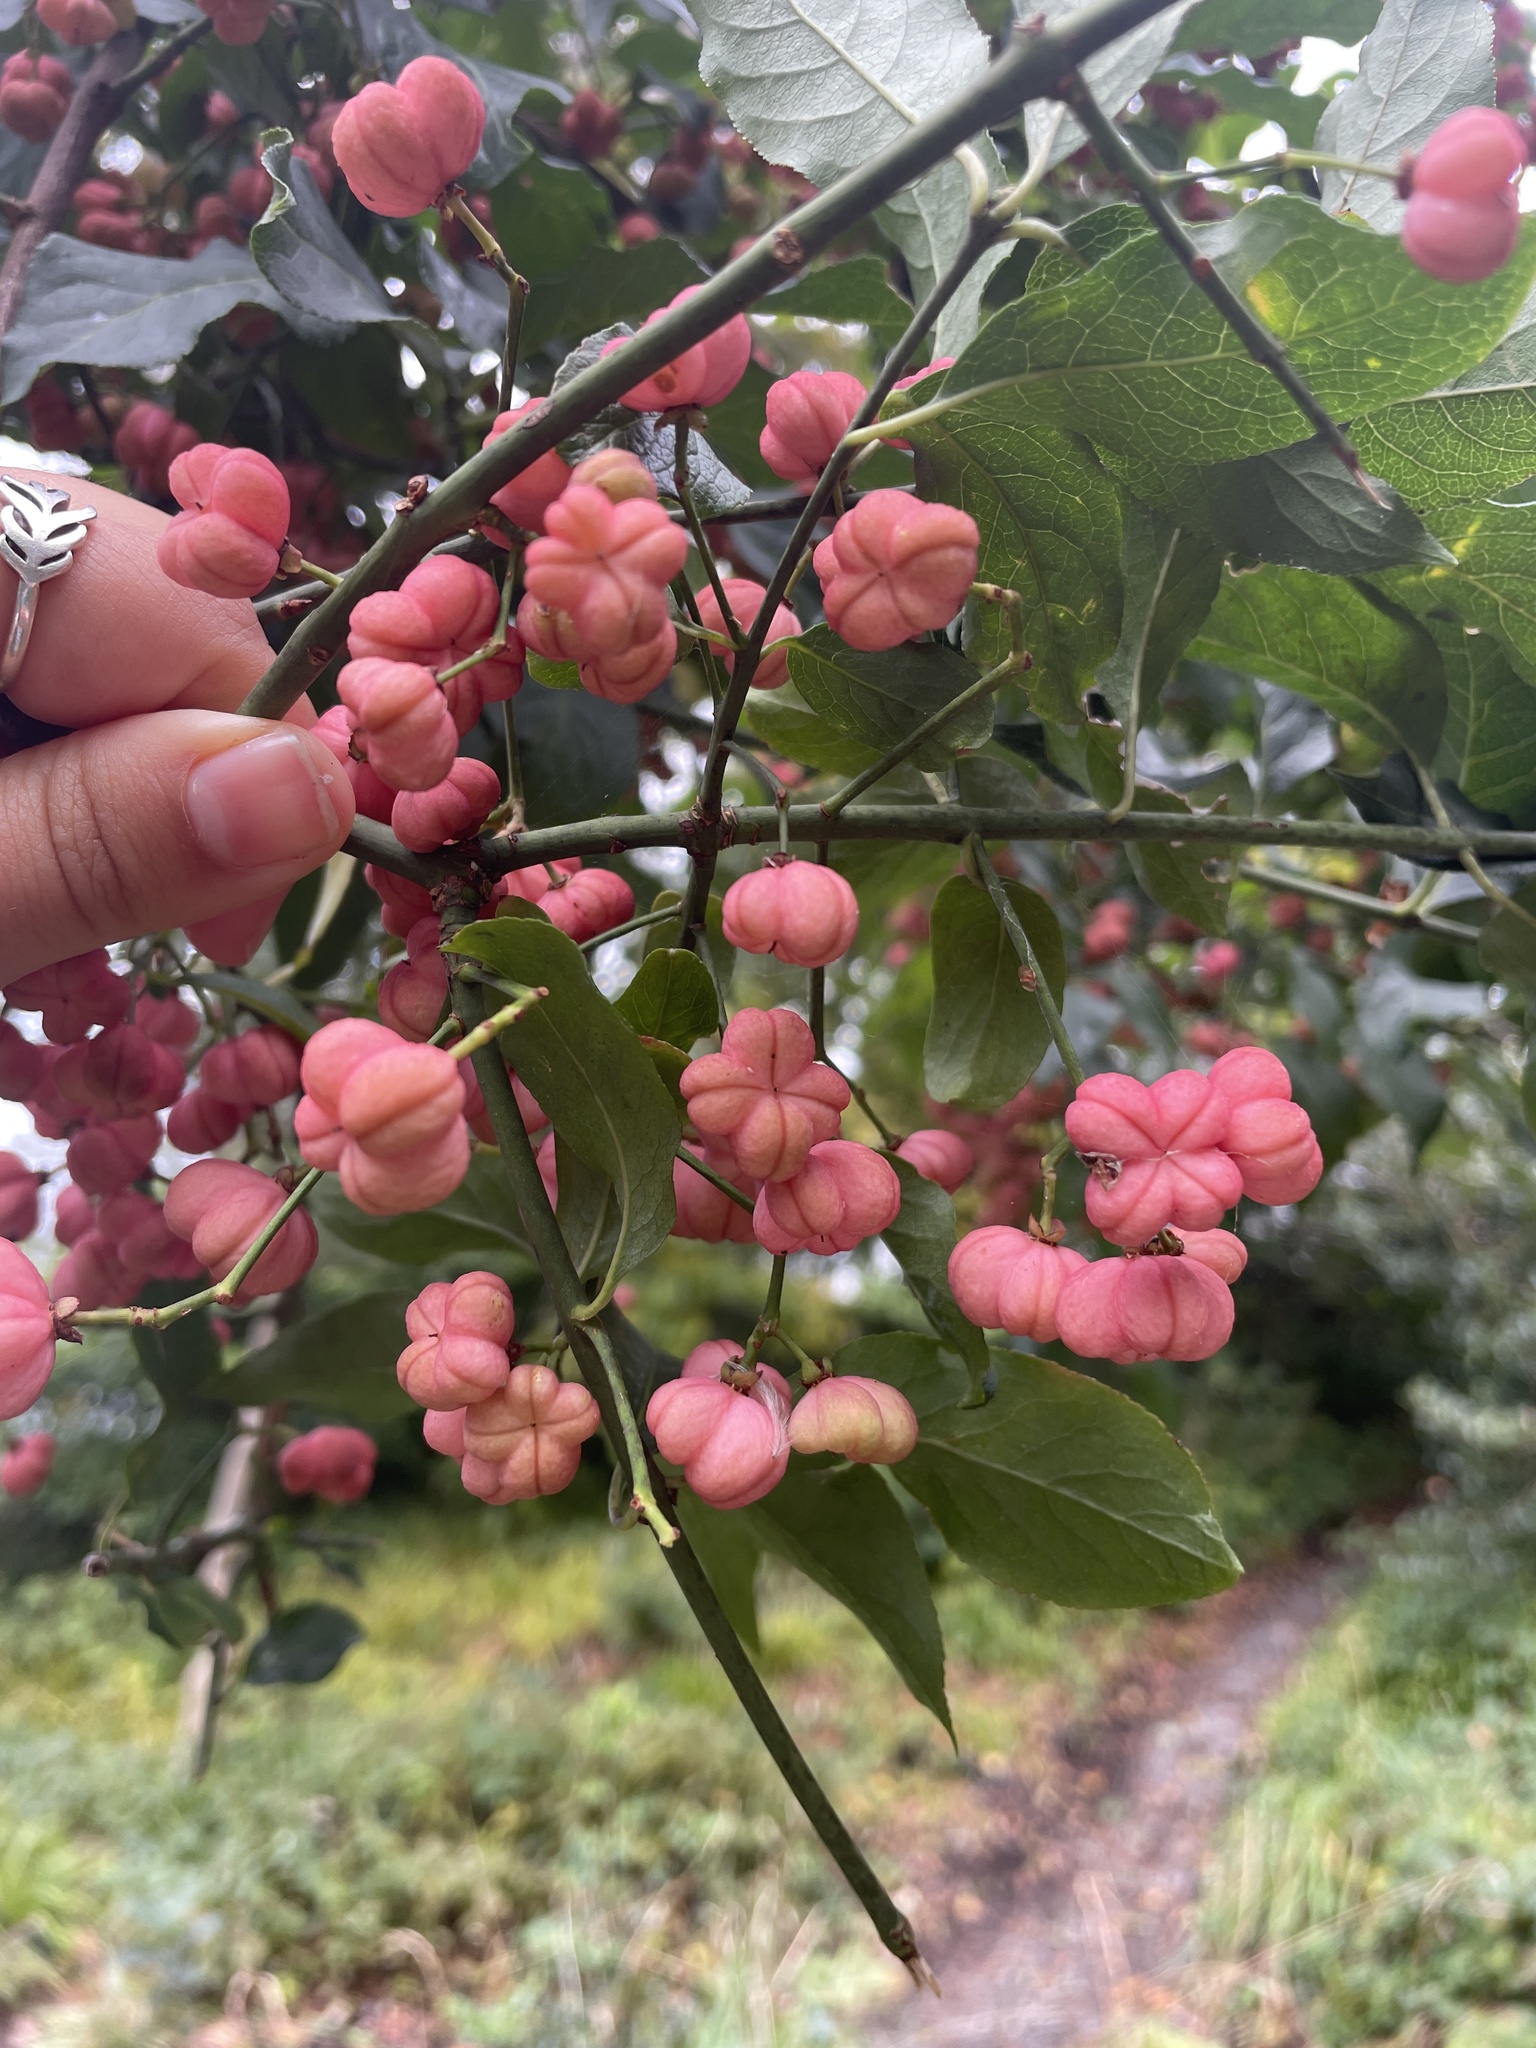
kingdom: Plantae
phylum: Tracheophyta
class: Magnoliopsida
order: Celastrales
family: Celastraceae
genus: Euonymus
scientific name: Euonymus europaeus
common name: Spindle
